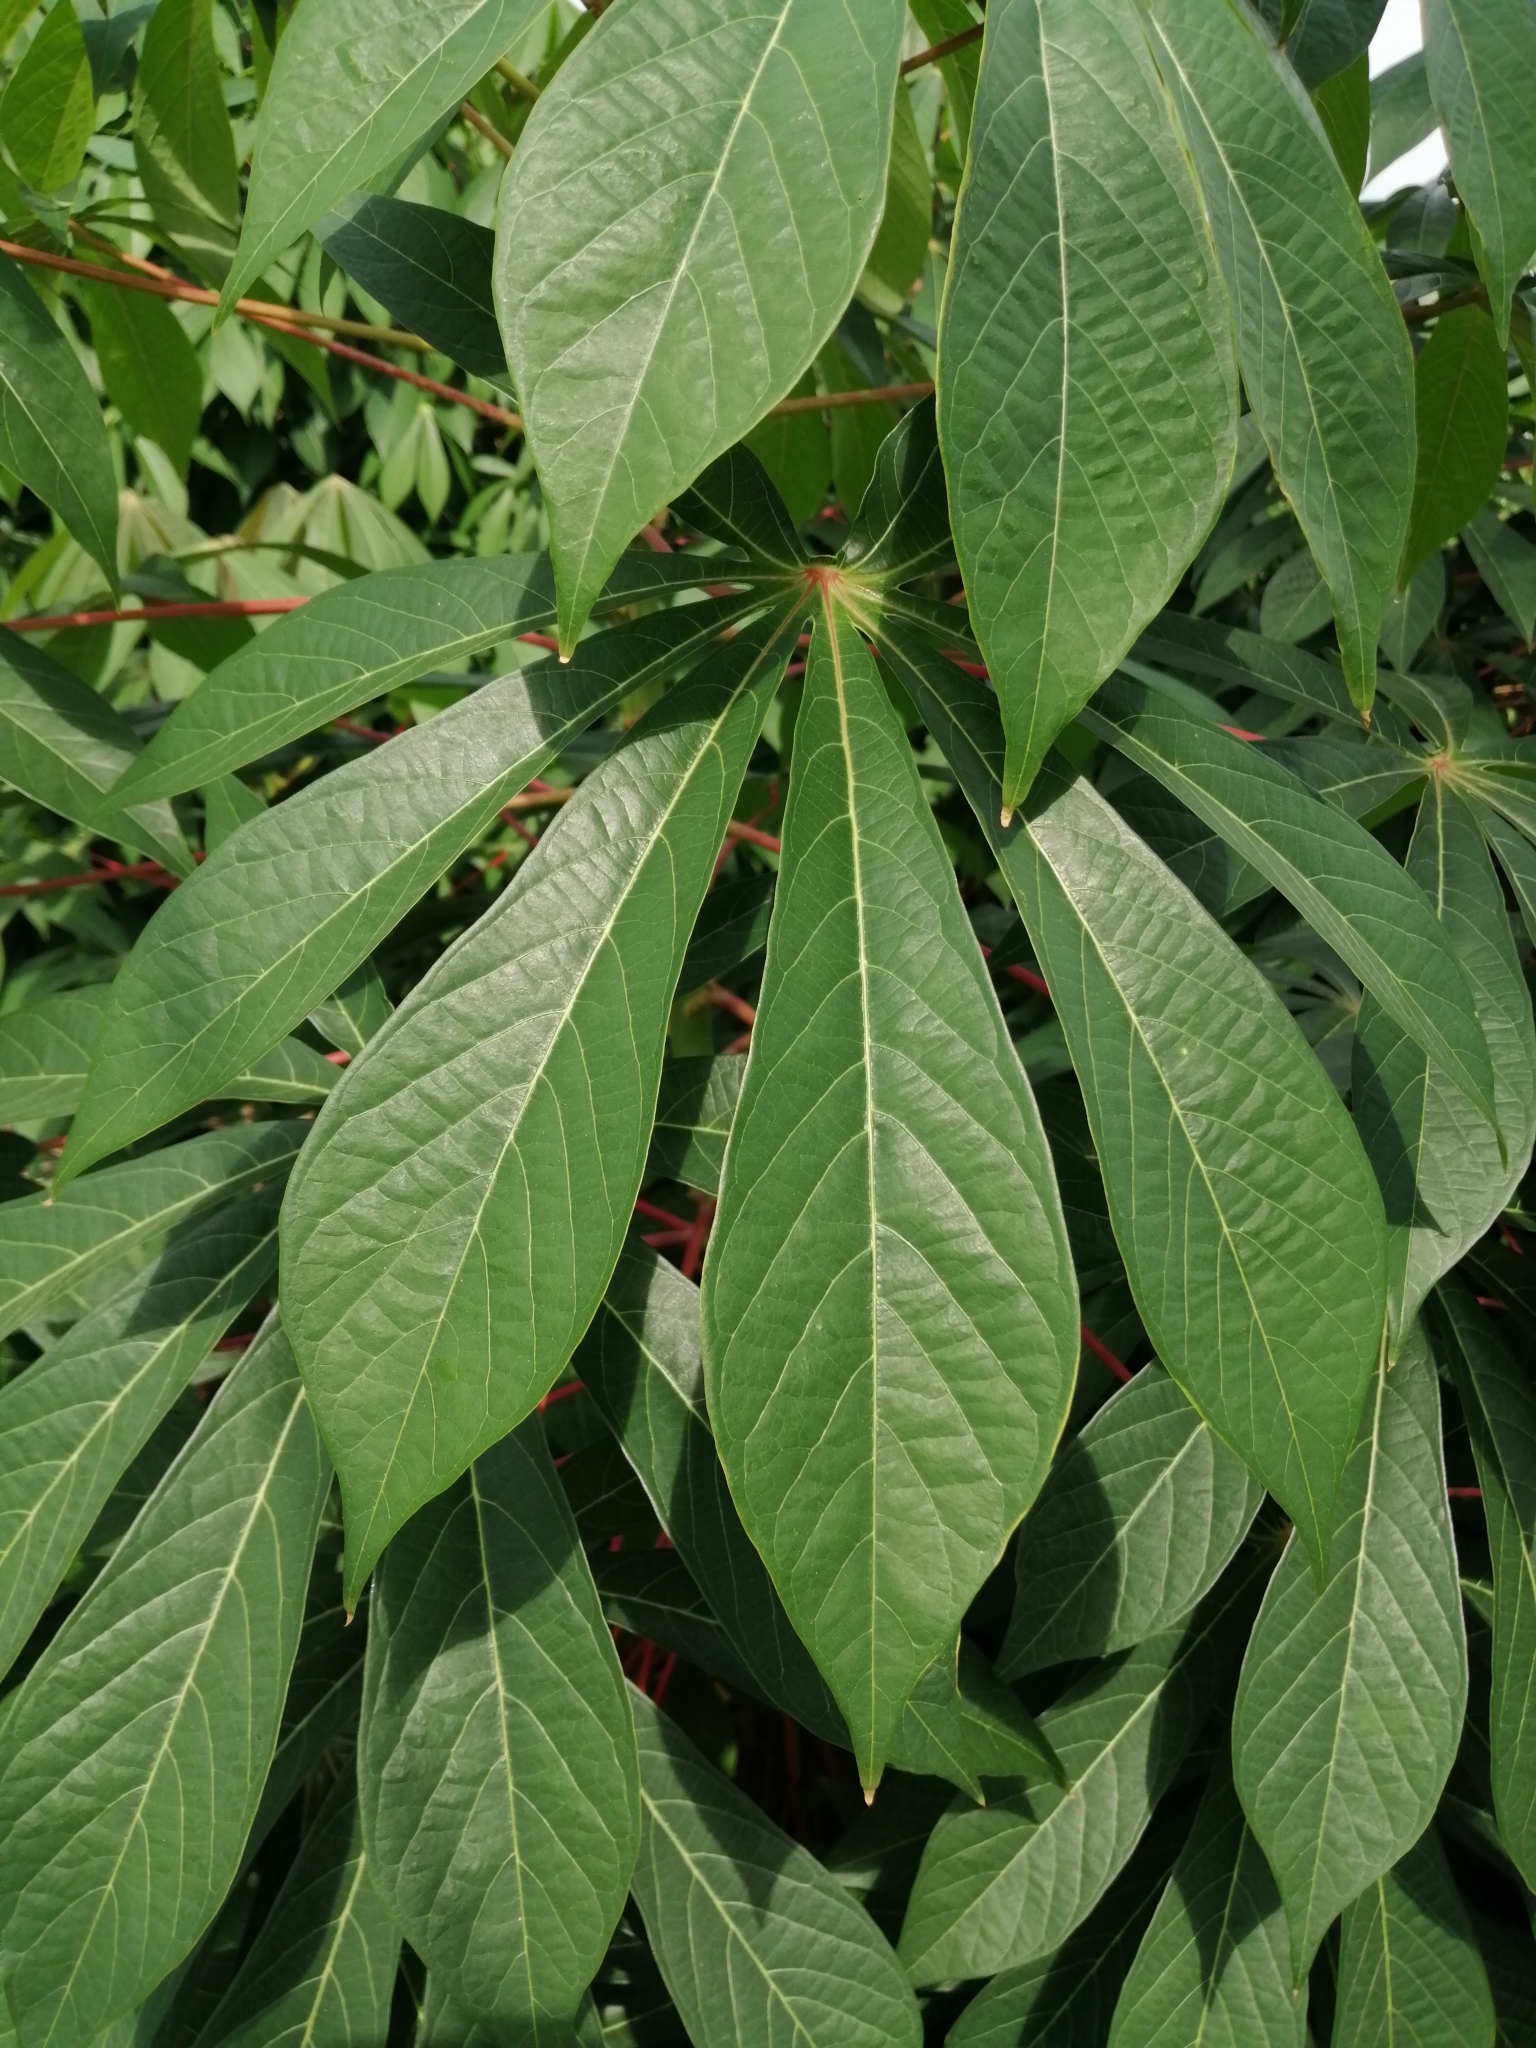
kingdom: Plantae
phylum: Tracheophyta
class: Magnoliopsida
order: Malpighiales
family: Euphorbiaceae
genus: Manihot
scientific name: Manihot esculenta
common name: Cassava
